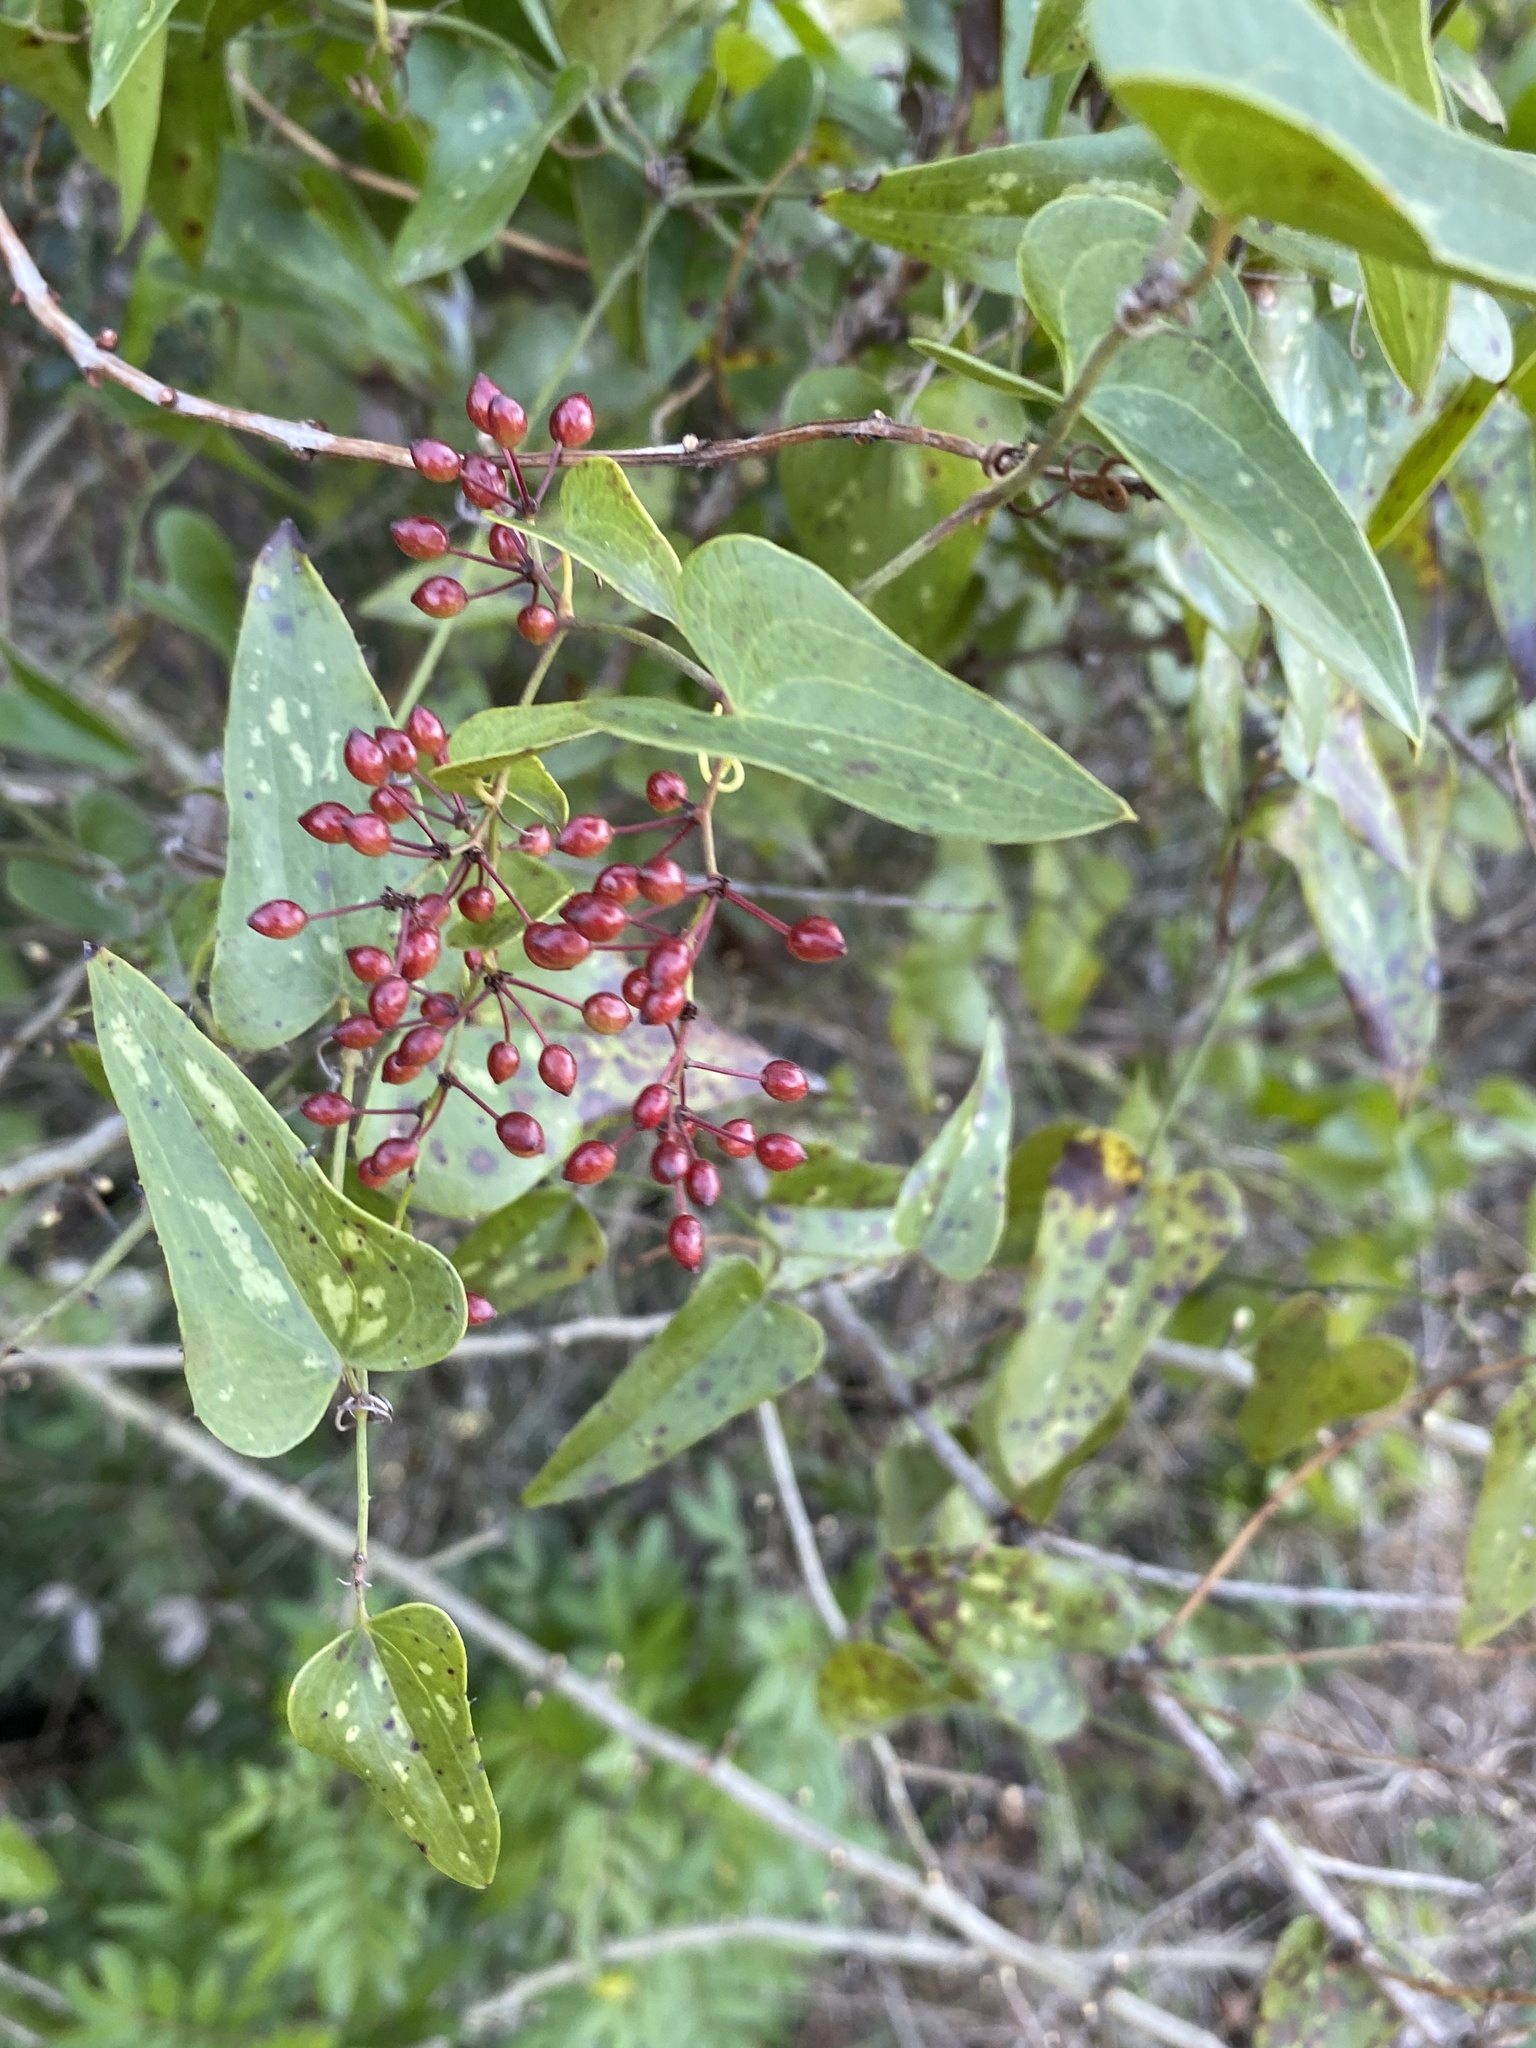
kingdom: Plantae
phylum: Tracheophyta
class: Liliopsida
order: Liliales
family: Smilacaceae
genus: Smilax
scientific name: Smilax aspera
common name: Common smilax
